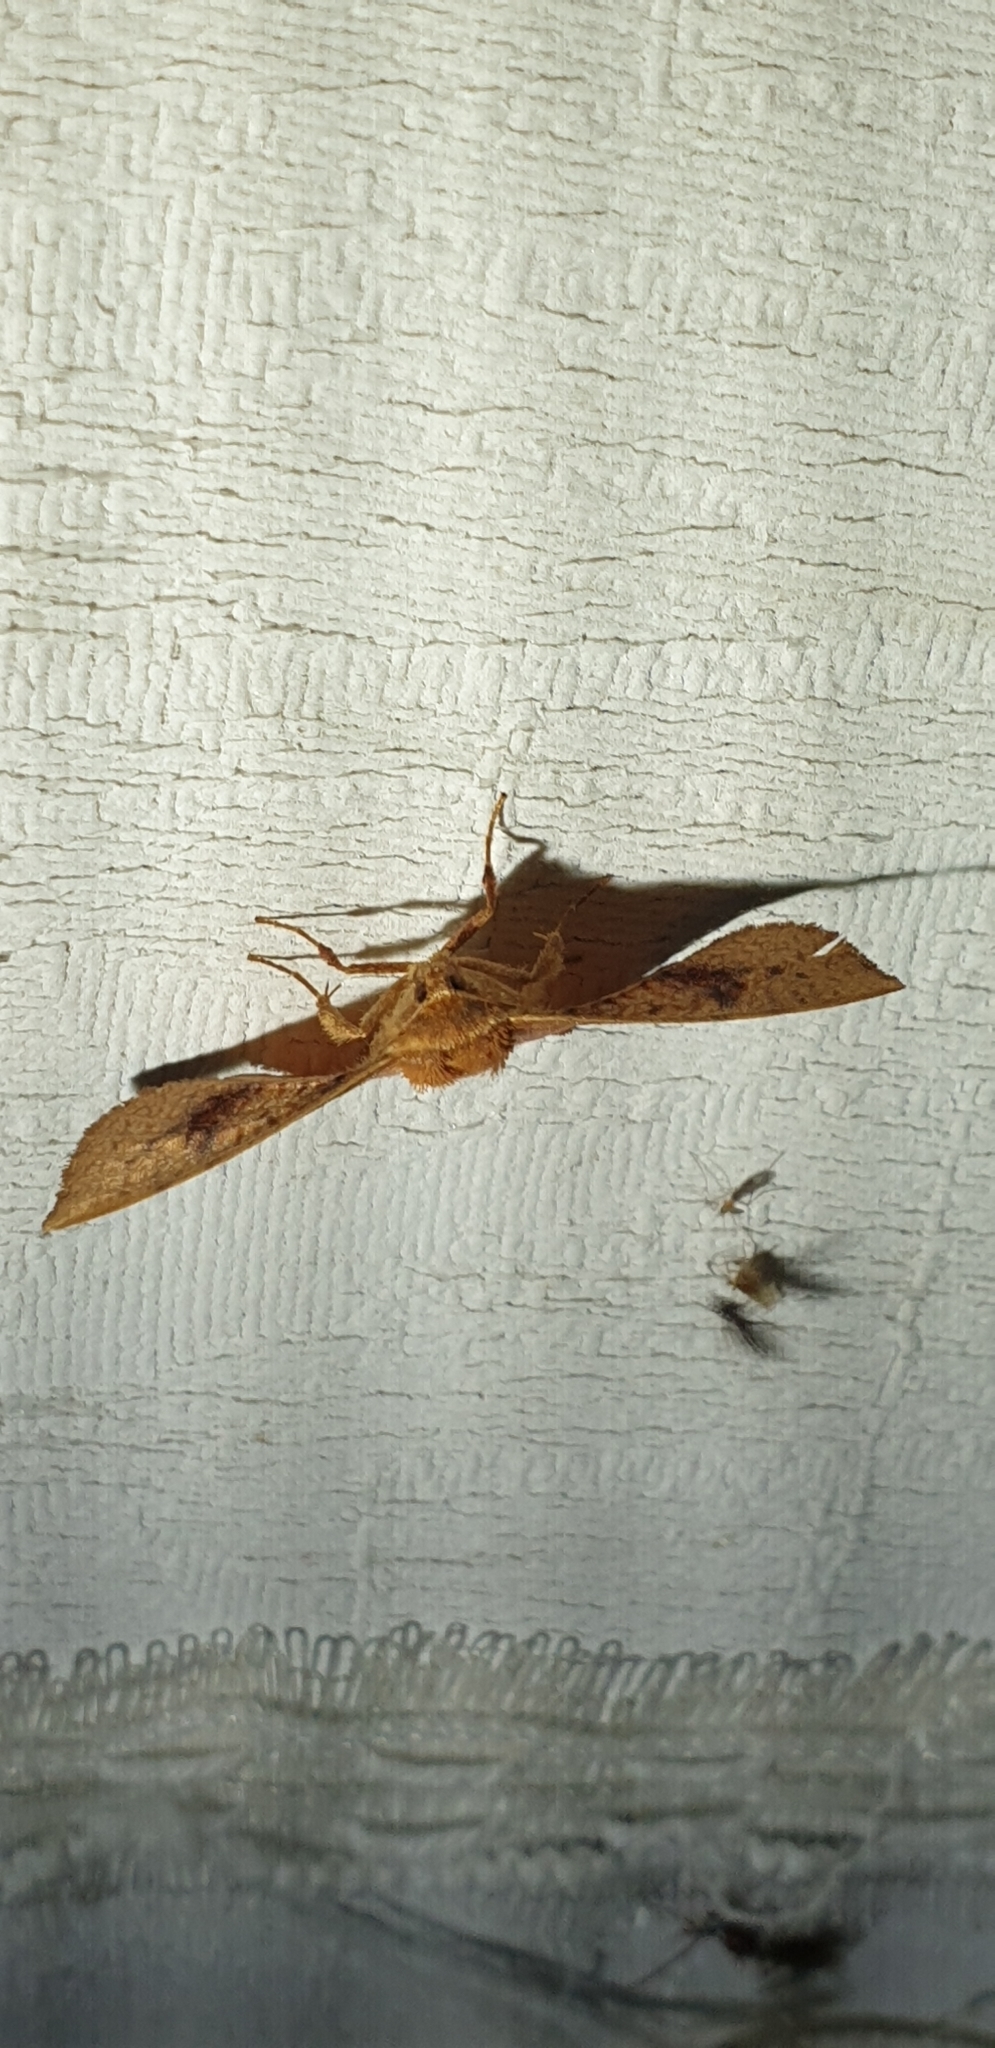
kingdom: Animalia
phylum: Arthropoda
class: Insecta
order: Lepidoptera
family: Geometridae
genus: Circopetes
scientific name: Circopetes obtusata
